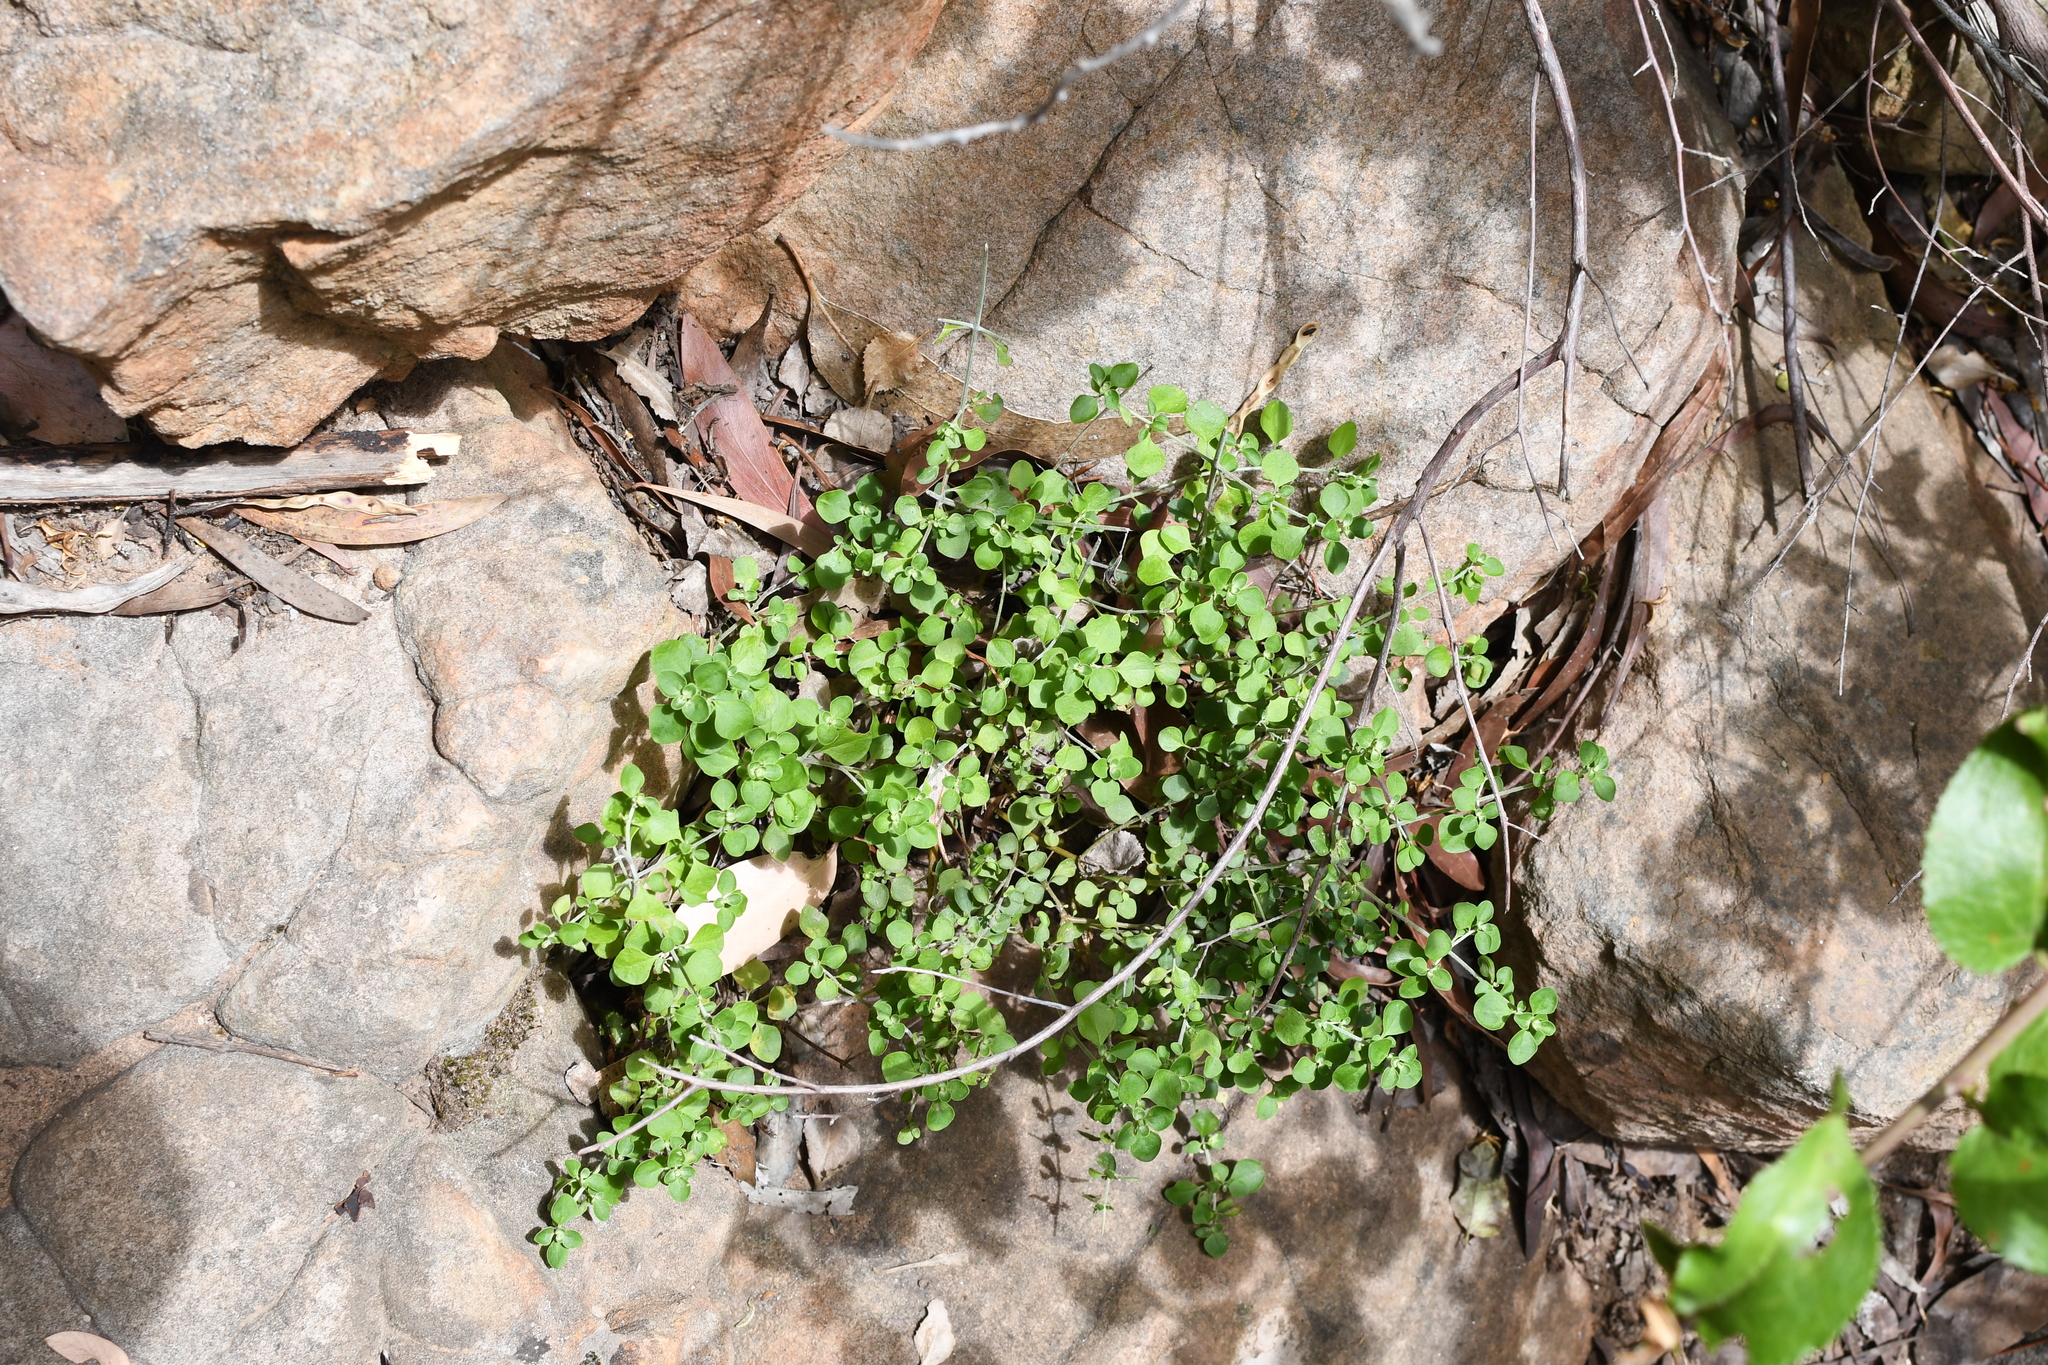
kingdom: Plantae
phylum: Tracheophyta
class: Magnoliopsida
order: Lamiales
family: Lamiaceae
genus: Prostanthera
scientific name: Prostanthera rotundifolia
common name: Round-leaf mintbush
